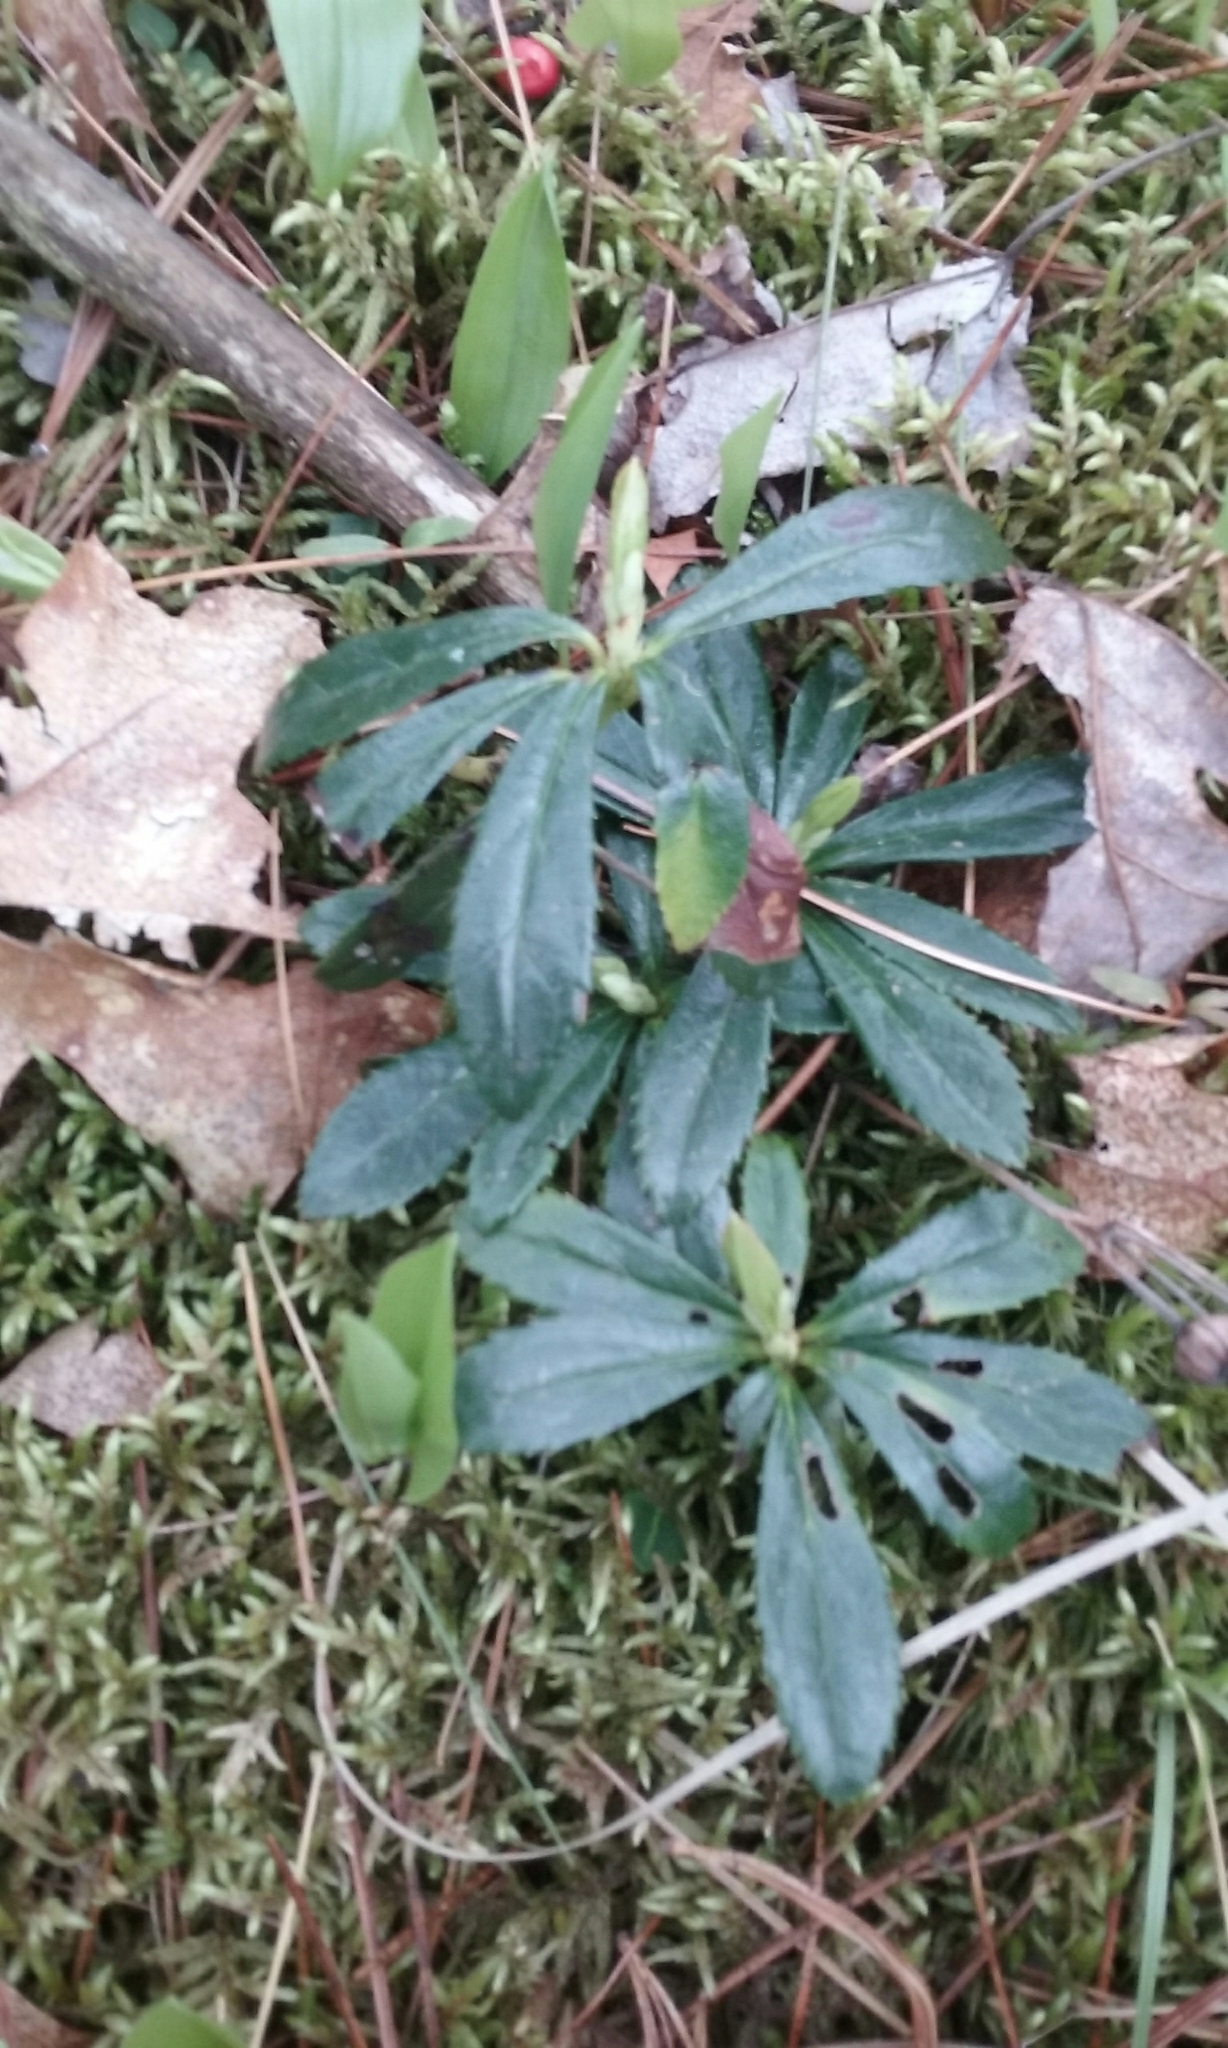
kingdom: Plantae
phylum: Tracheophyta
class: Magnoliopsida
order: Ericales
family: Ericaceae
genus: Chimaphila
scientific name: Chimaphila umbellata
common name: Pipsissewa
